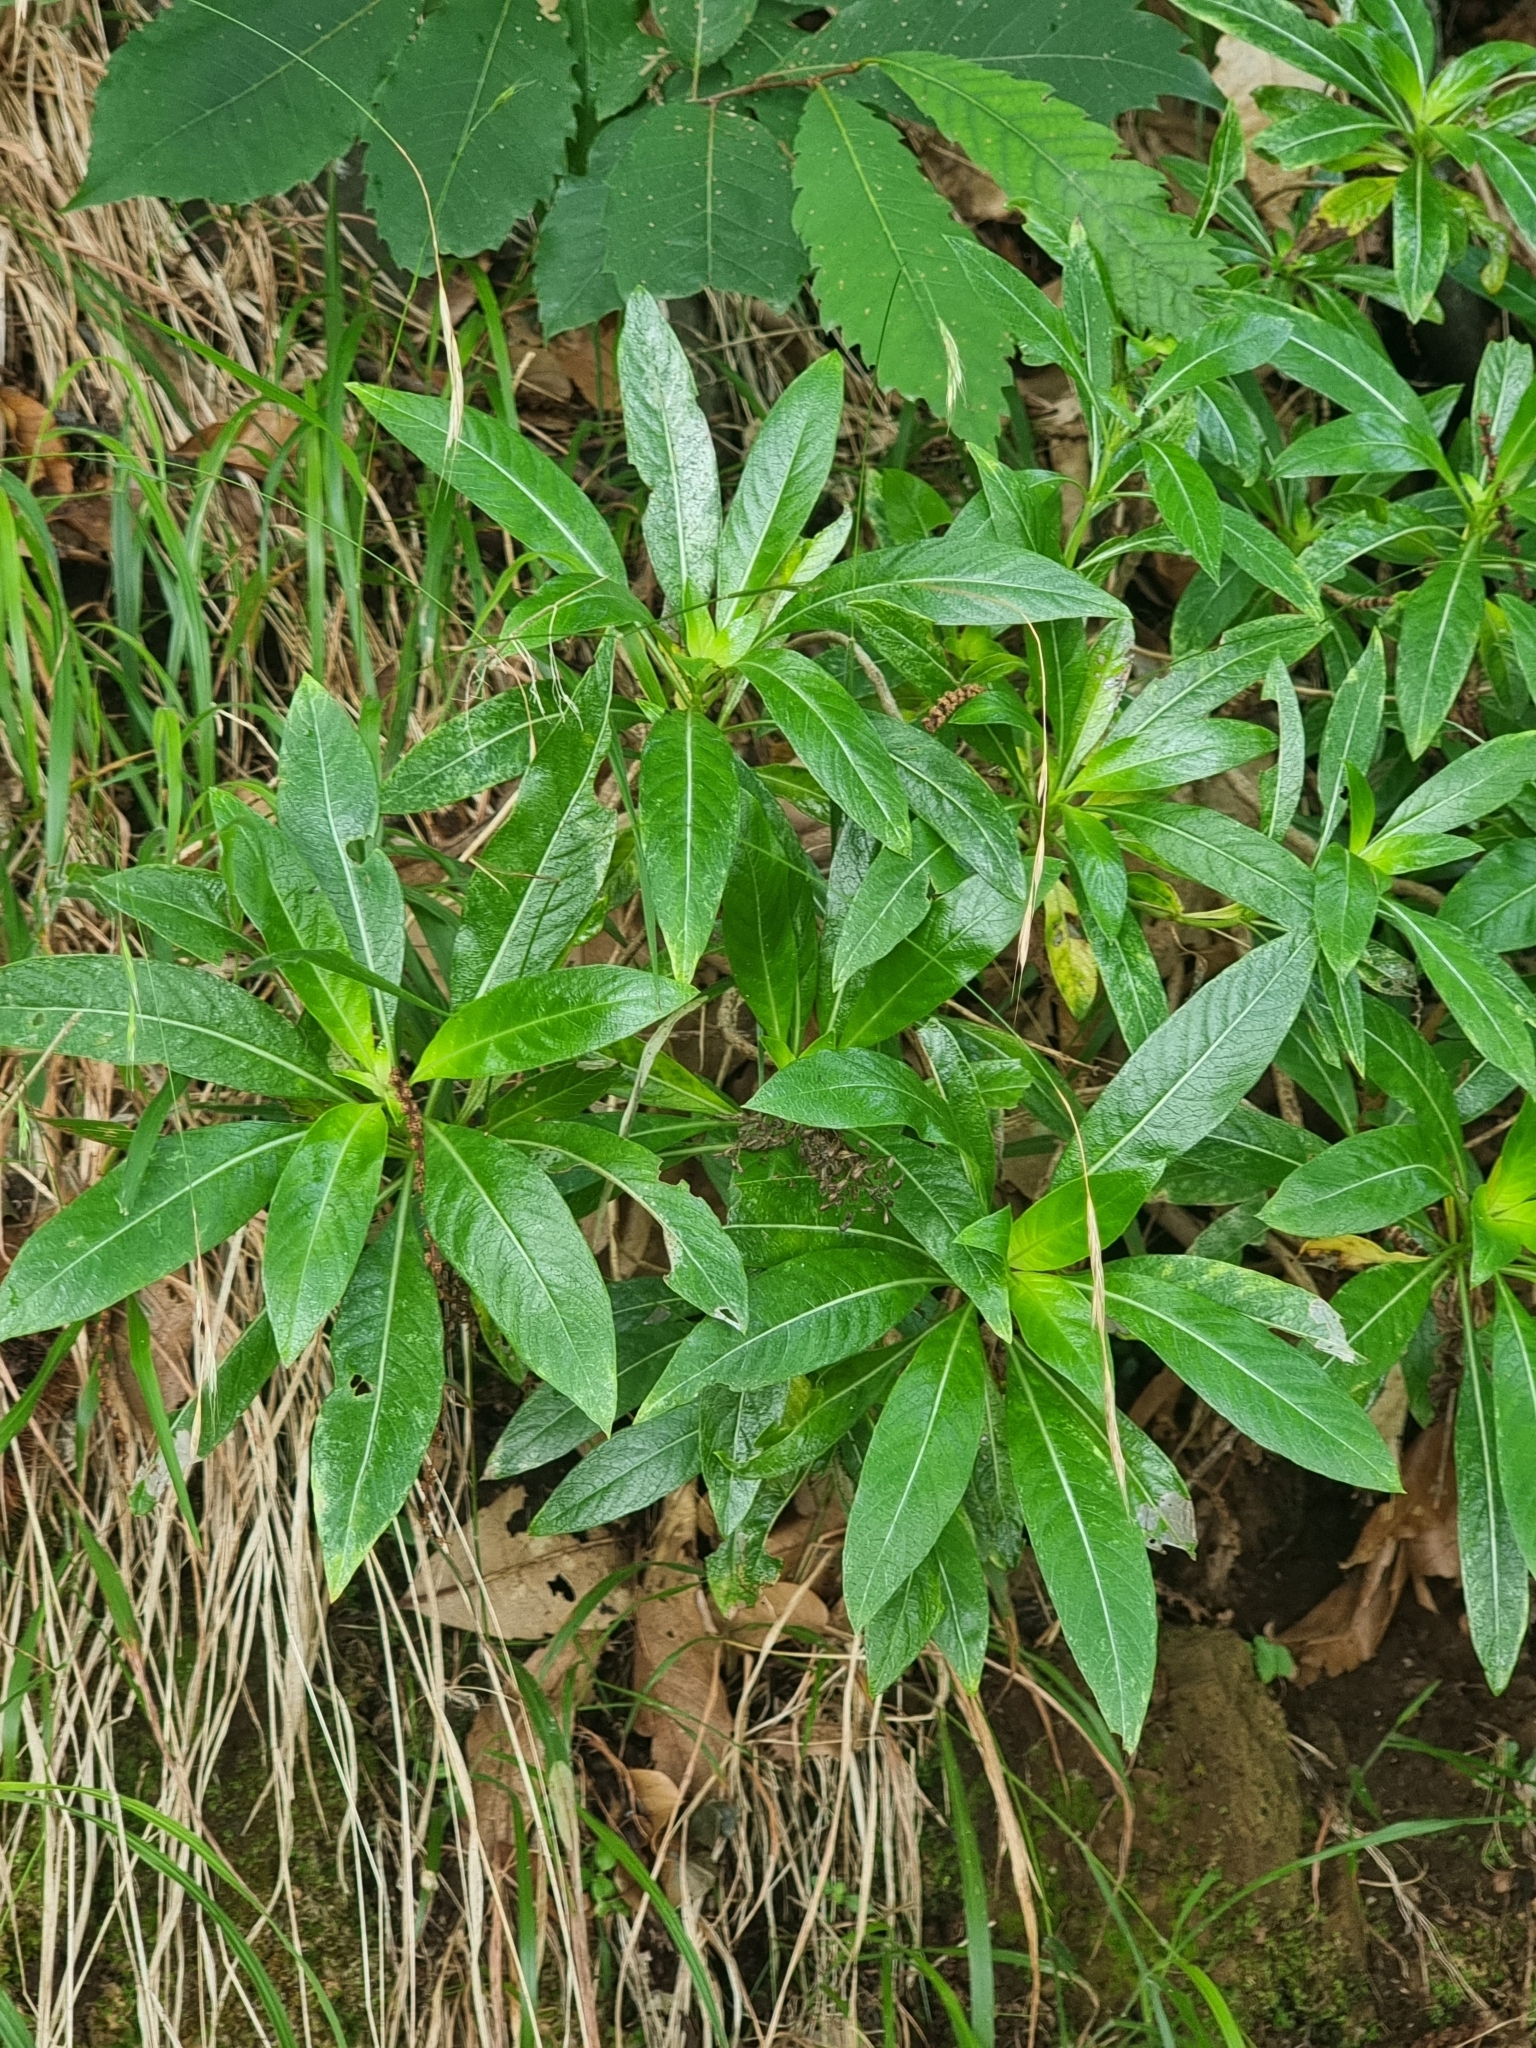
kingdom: Plantae
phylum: Tracheophyta
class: Magnoliopsida
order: Gentianales
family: Rubiaceae
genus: Phyllis
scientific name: Phyllis nobla
